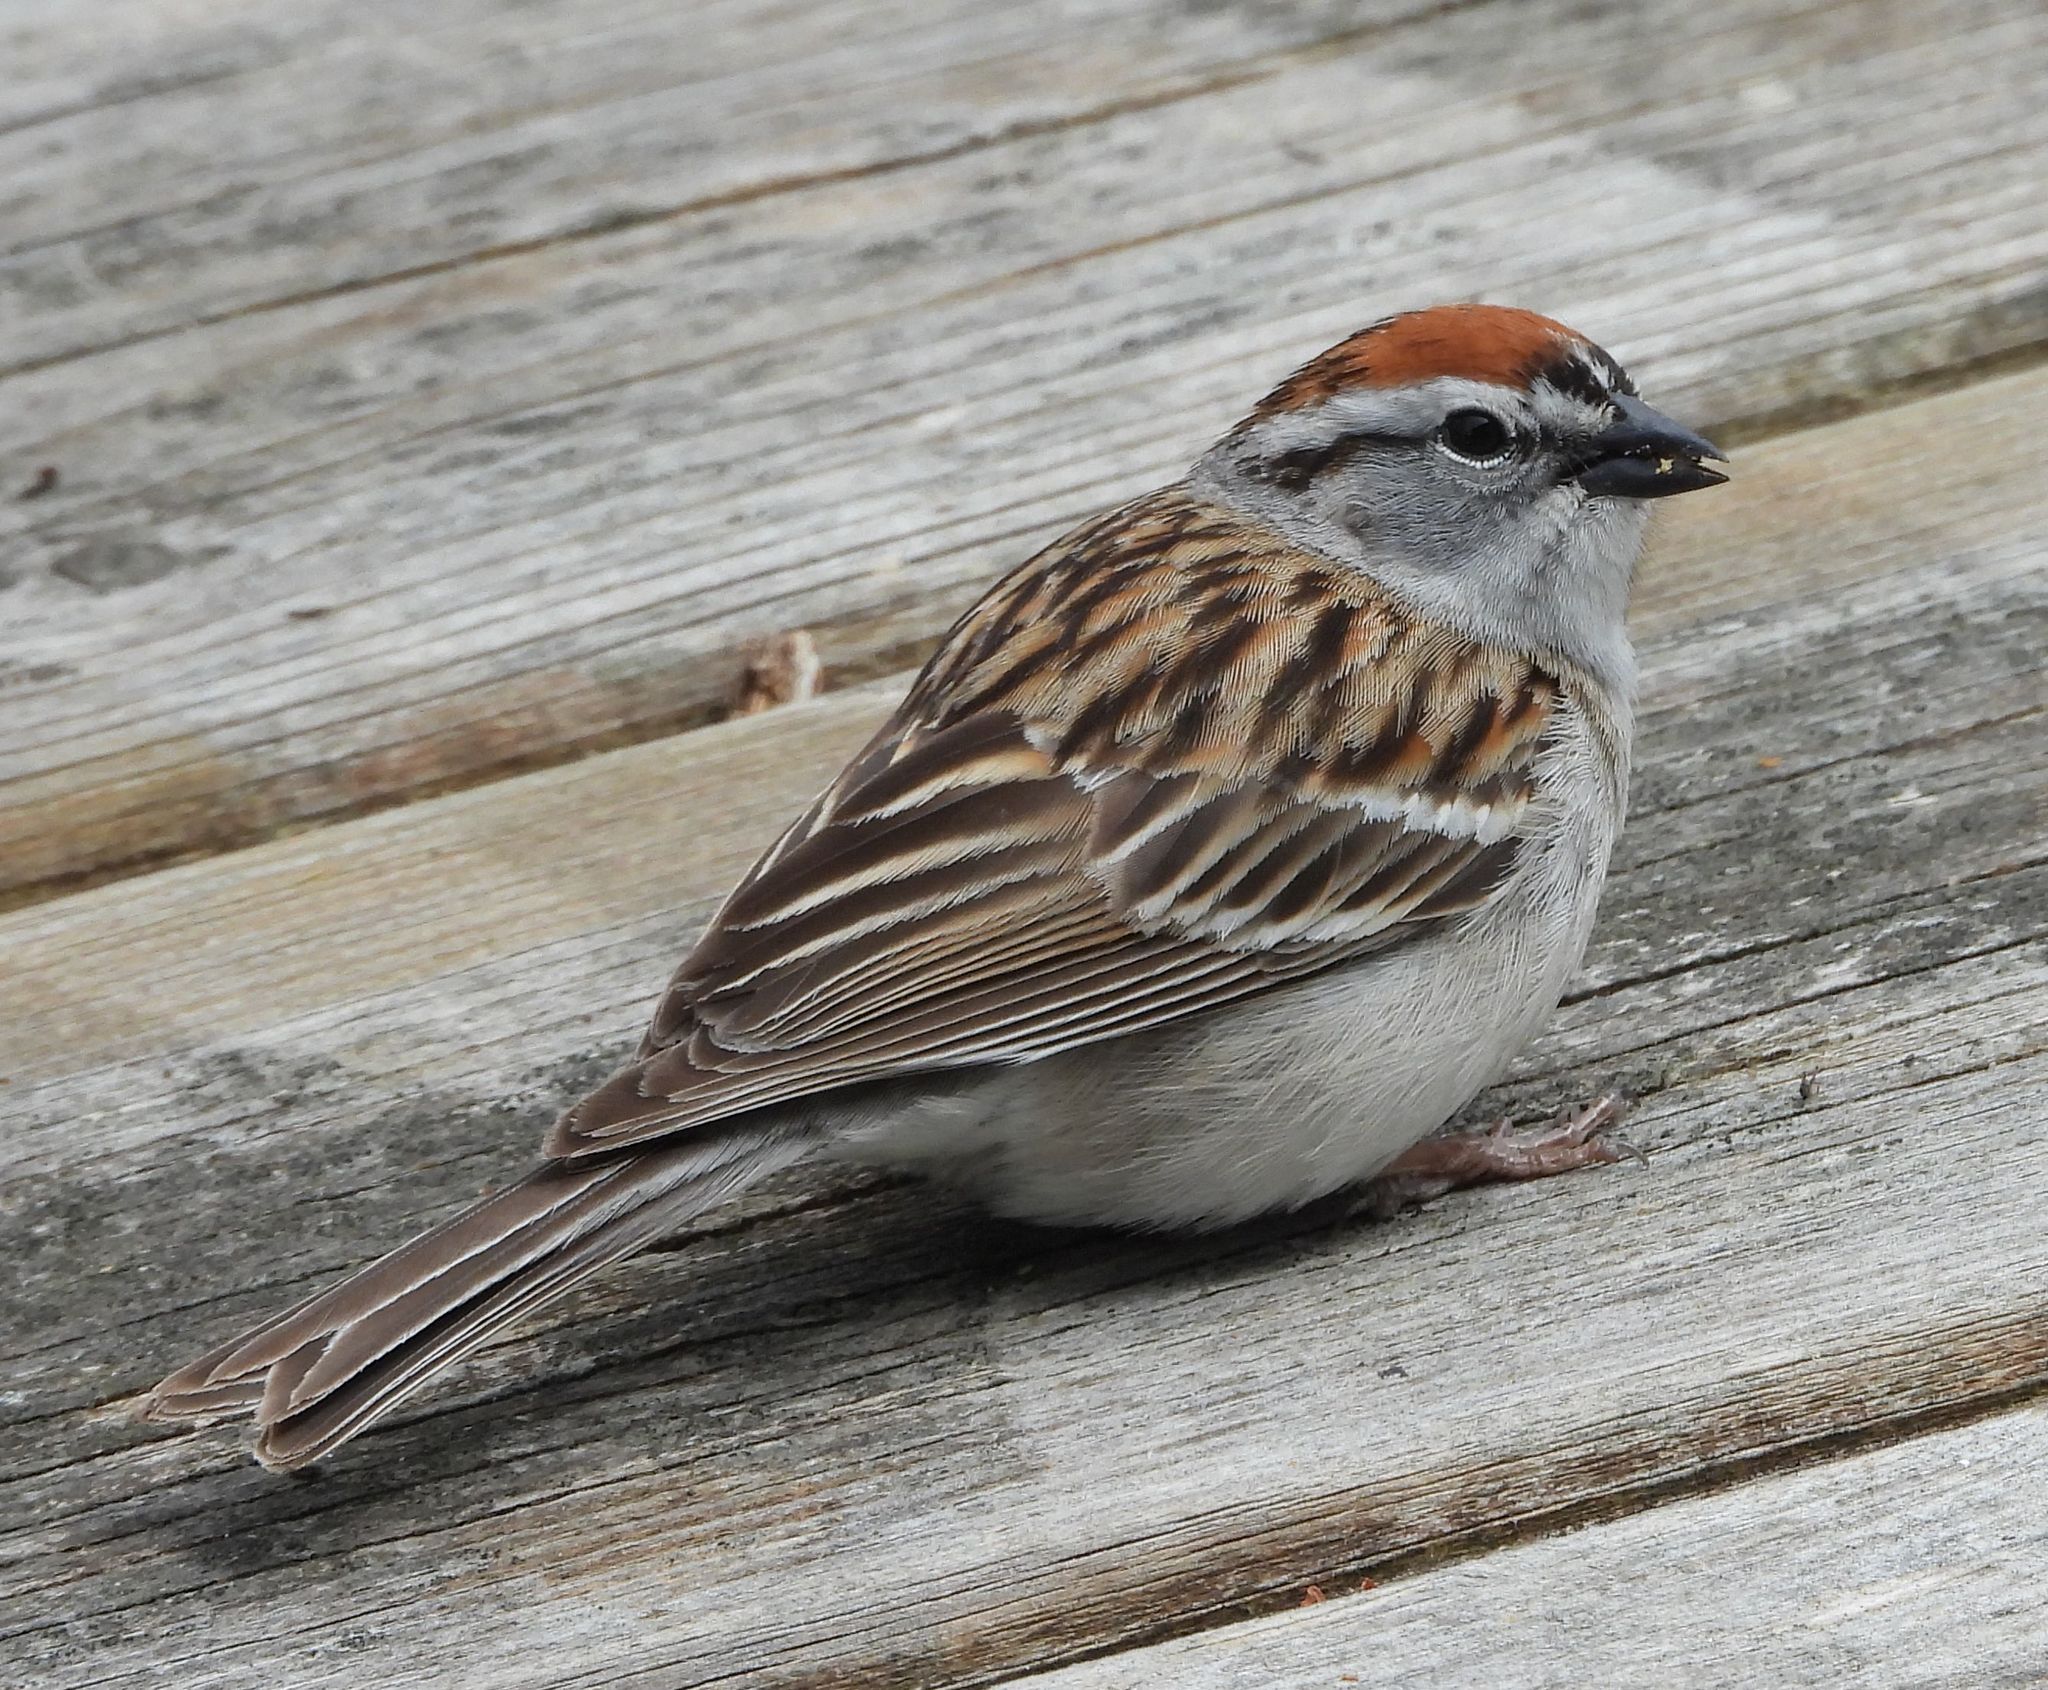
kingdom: Animalia
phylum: Chordata
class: Aves
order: Passeriformes
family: Passerellidae
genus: Spizella
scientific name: Spizella passerina
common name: Chipping sparrow
